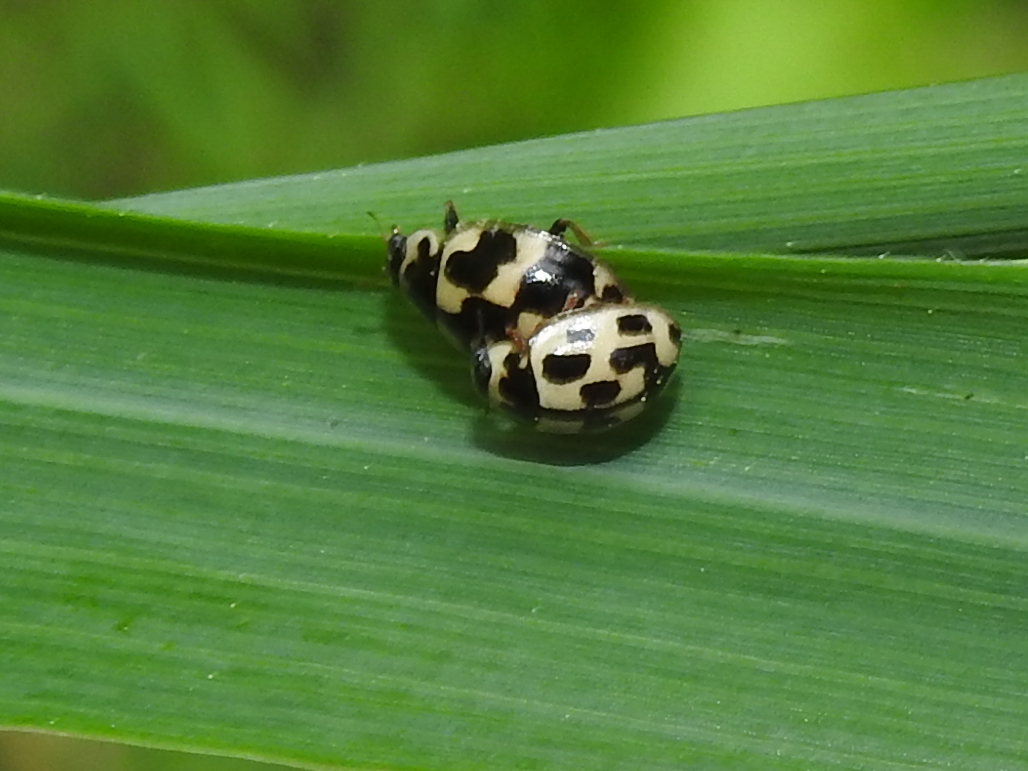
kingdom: Animalia
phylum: Arthropoda
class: Insecta
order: Coleoptera
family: Coccinellidae
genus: Propylaea
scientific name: Propylaea quatuordecimpunctata
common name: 14-spotted ladybird beetle
